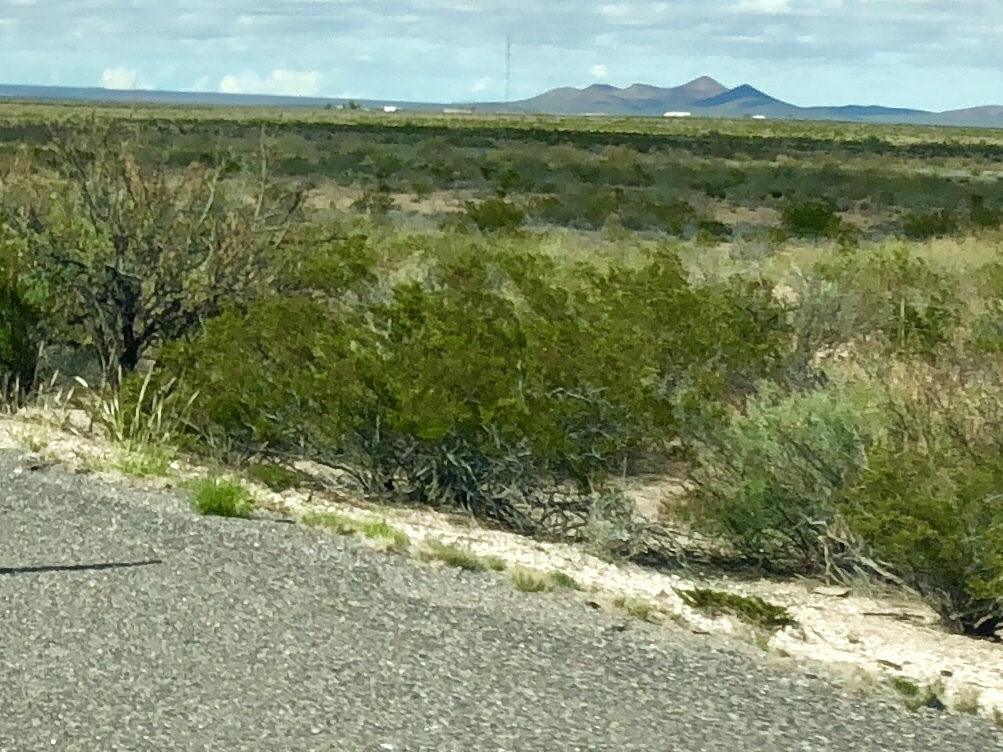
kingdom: Plantae
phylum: Tracheophyta
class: Magnoliopsida
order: Zygophyllales
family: Zygophyllaceae
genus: Larrea
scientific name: Larrea tridentata
